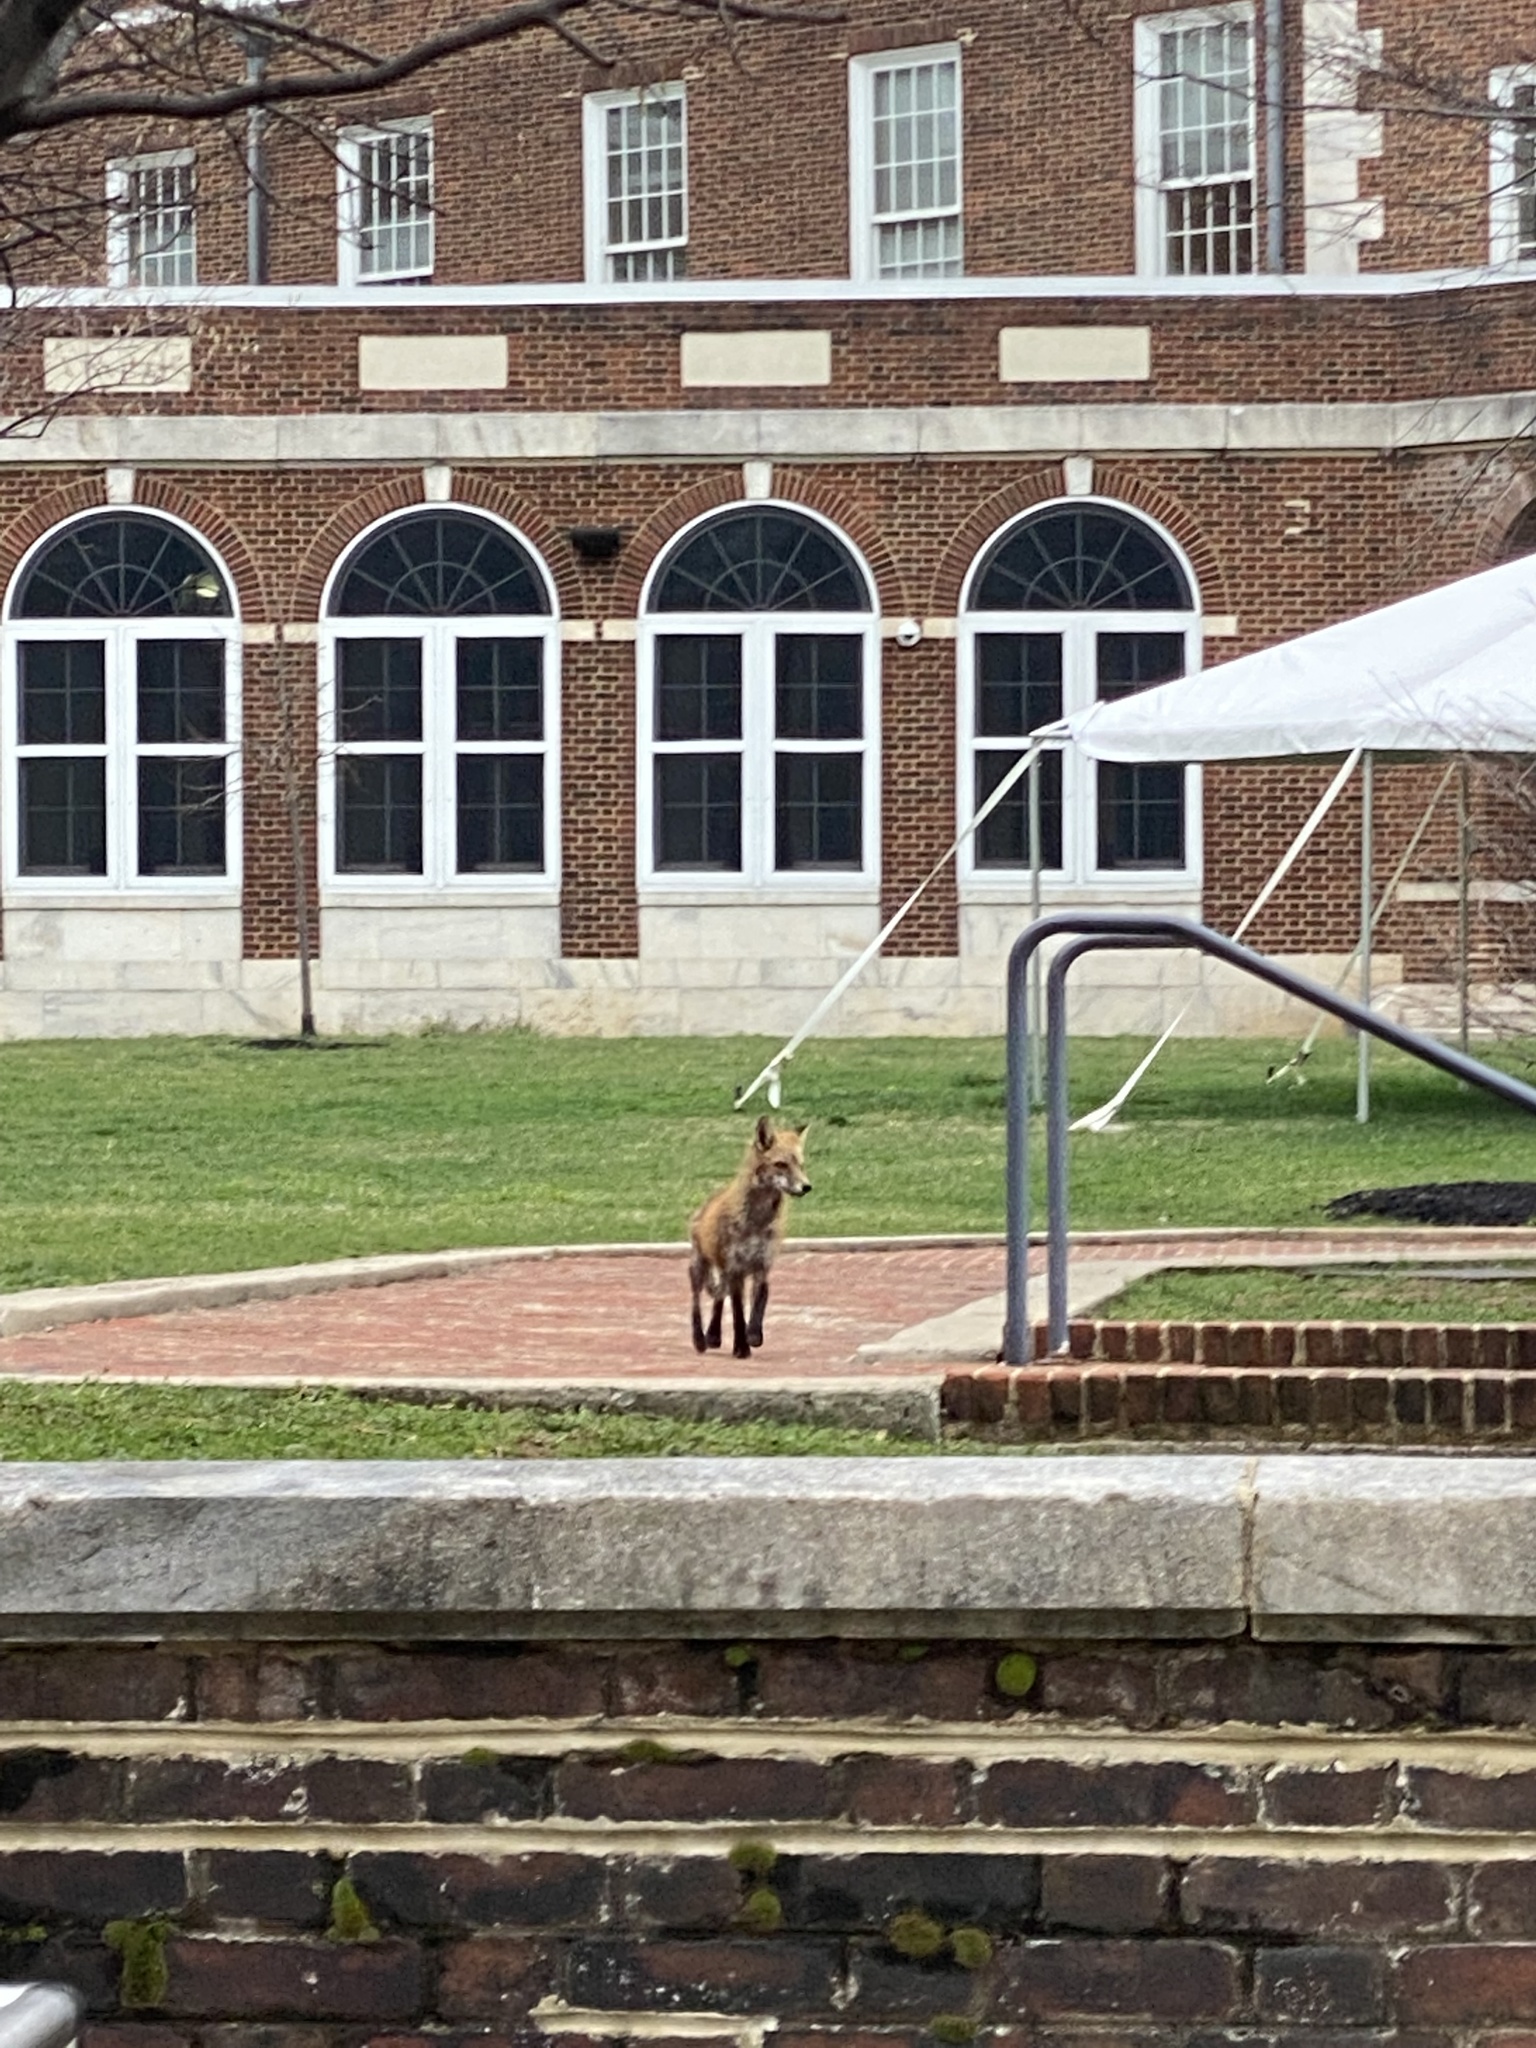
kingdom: Animalia
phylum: Chordata
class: Mammalia
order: Carnivora
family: Canidae
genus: Vulpes
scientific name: Vulpes vulpes
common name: Red fox
